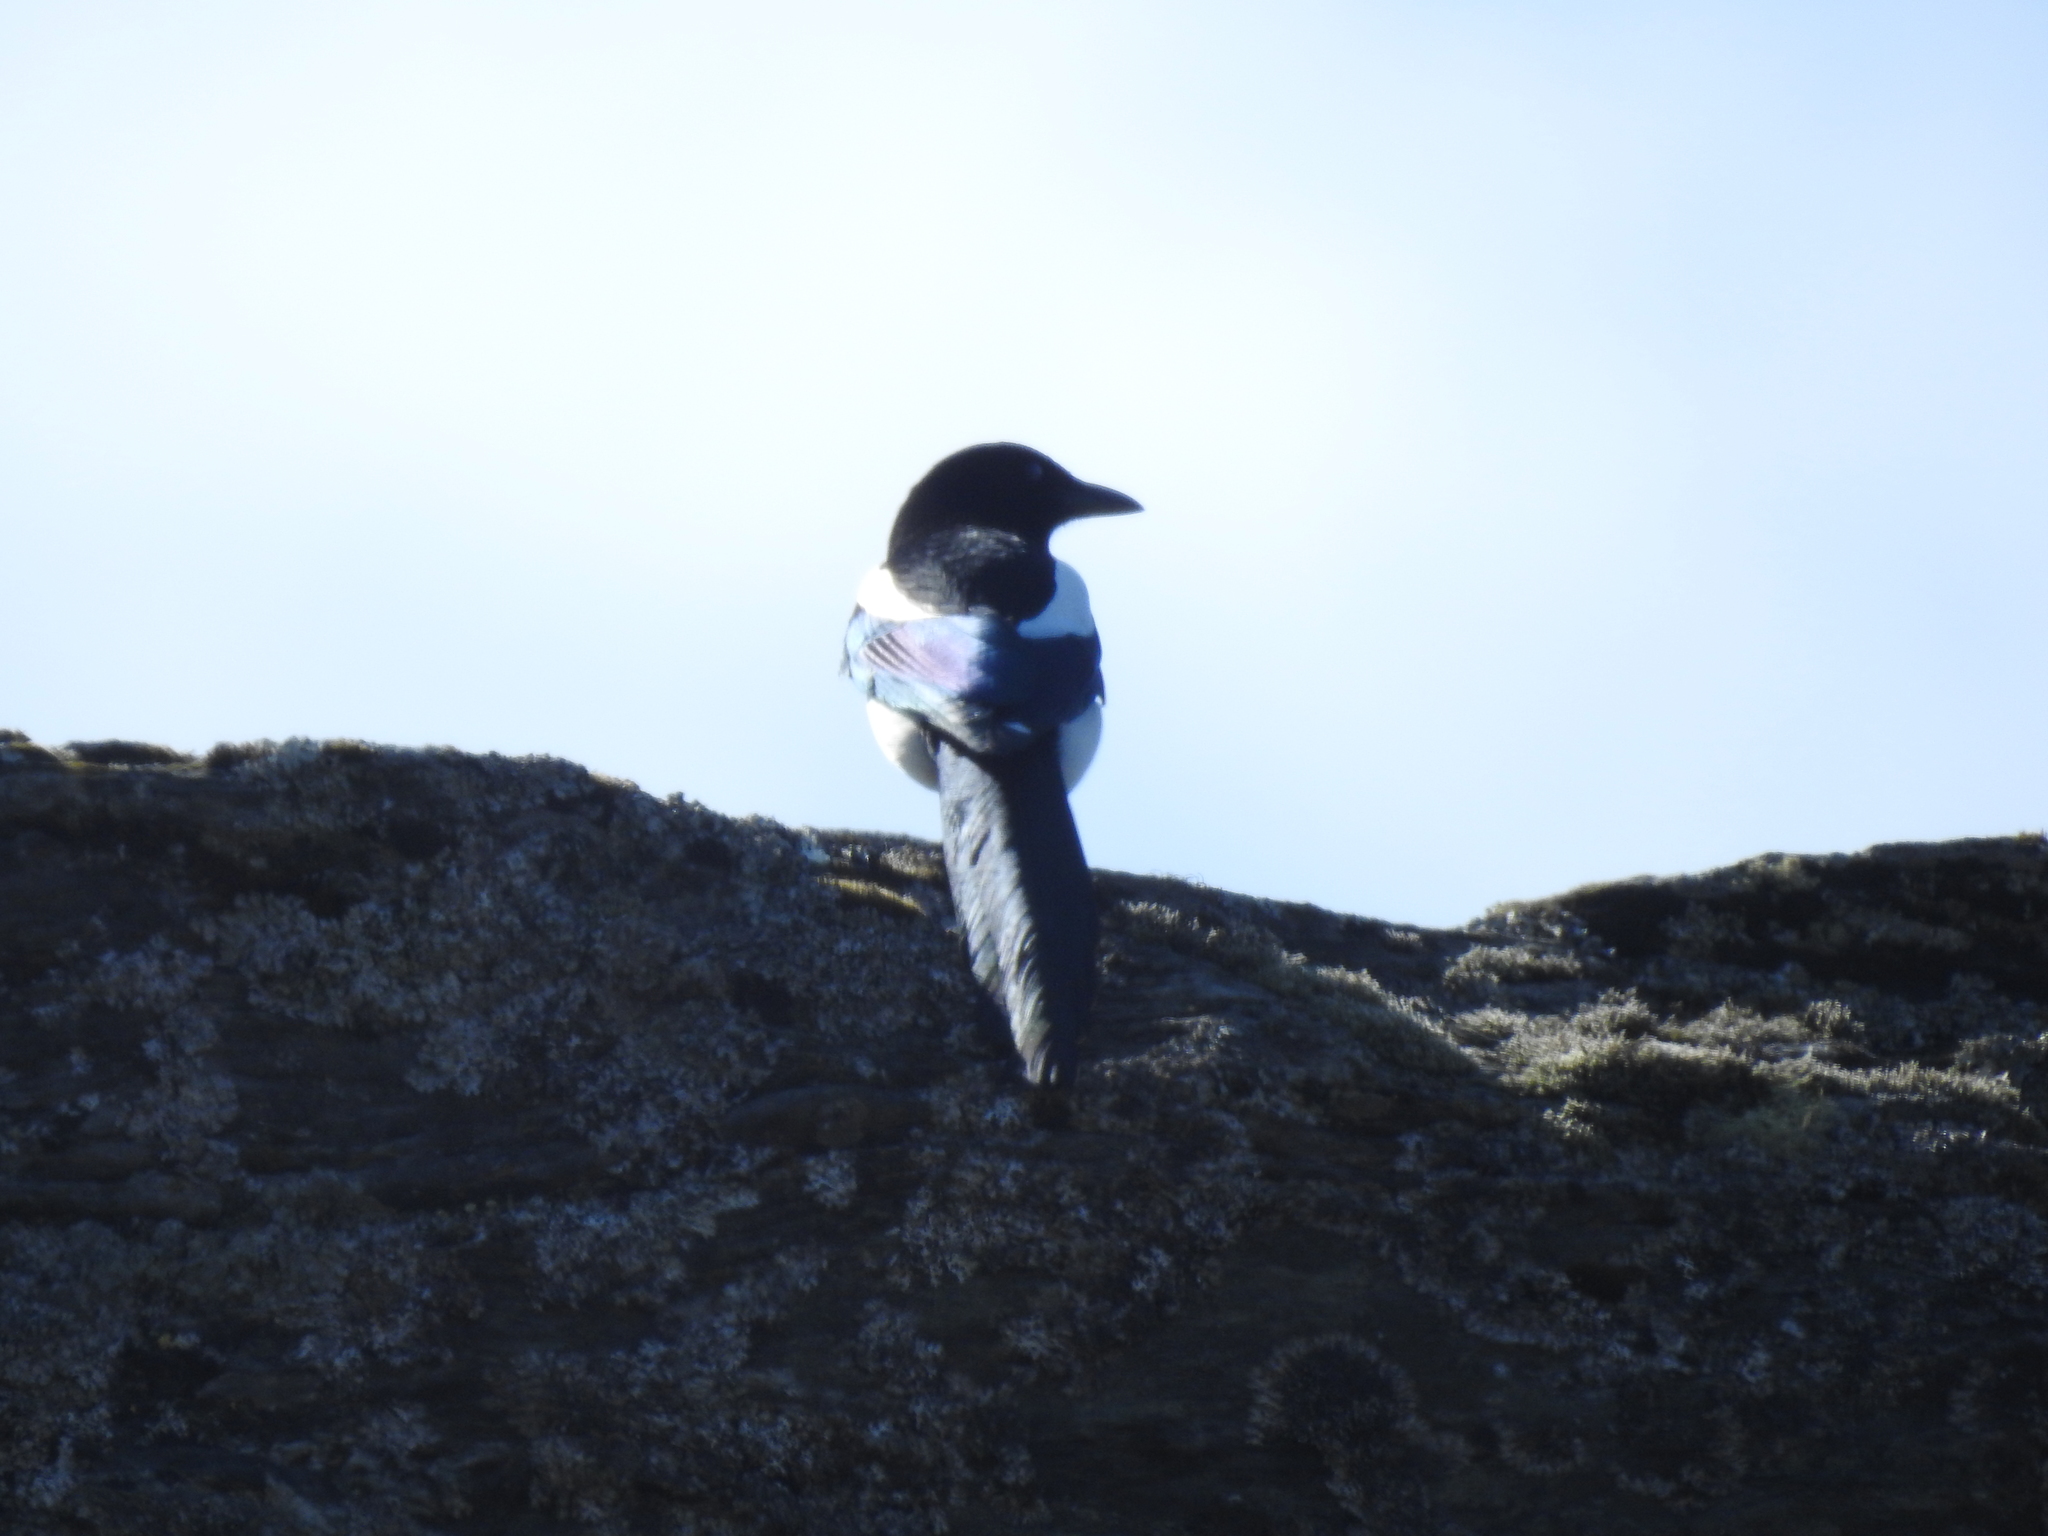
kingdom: Animalia
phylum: Chordata
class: Aves
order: Passeriformes
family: Corvidae
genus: Pica
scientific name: Pica pica
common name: Eurasian magpie
